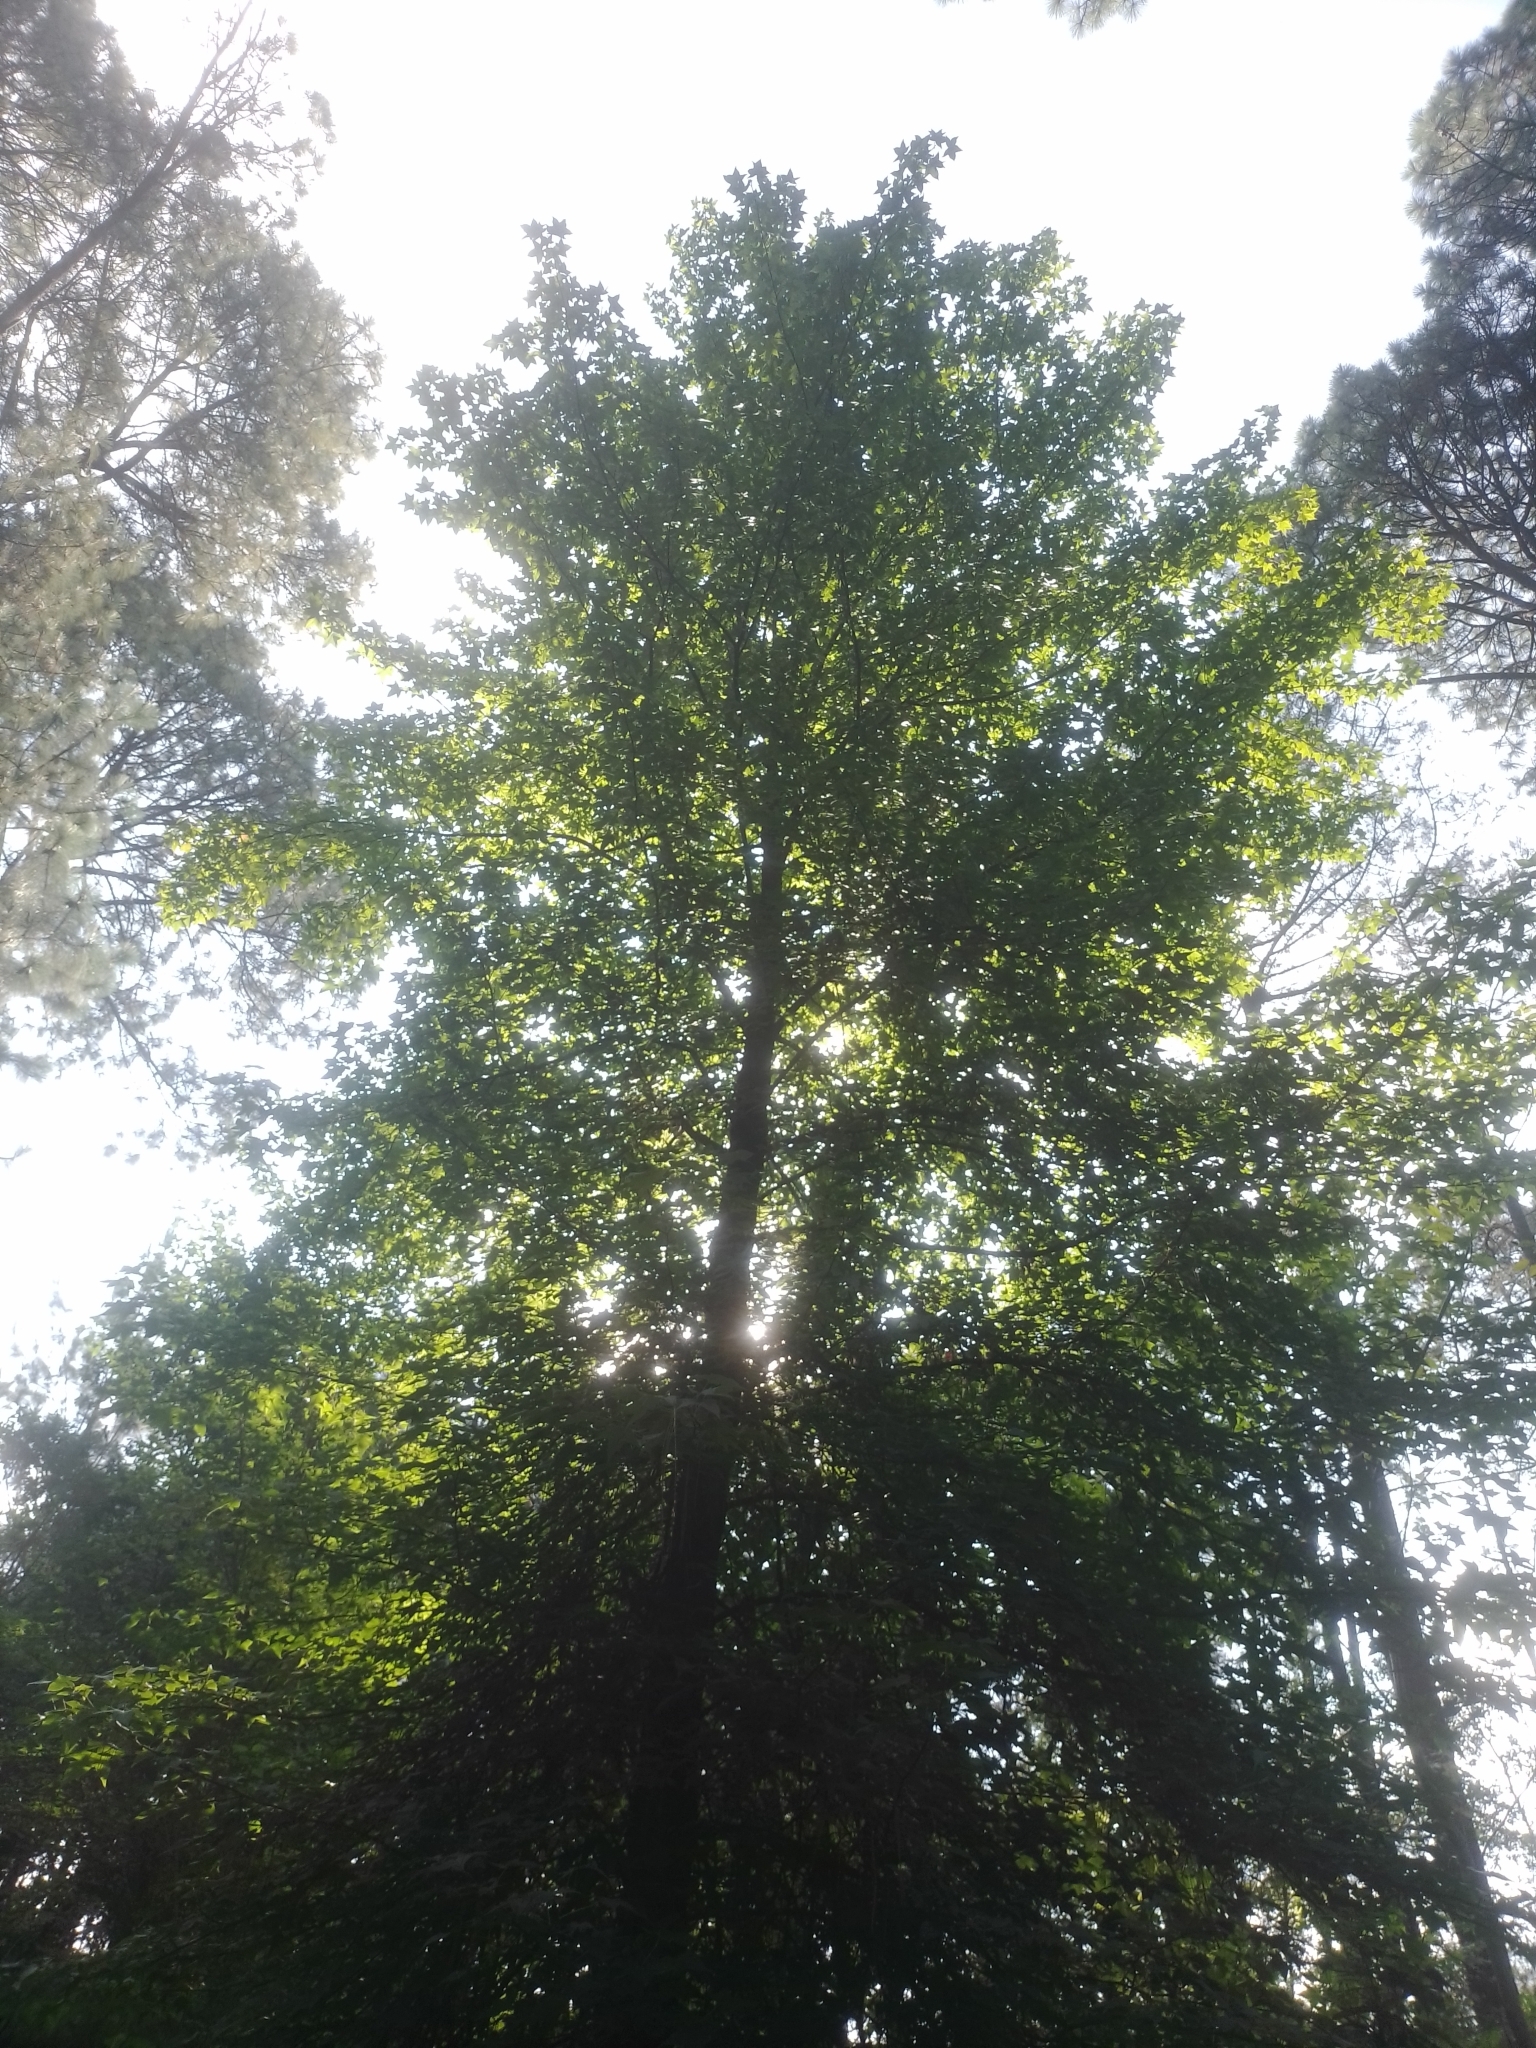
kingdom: Plantae
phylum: Tracheophyta
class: Magnoliopsida
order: Saxifragales
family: Altingiaceae
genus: Liquidambar
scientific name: Liquidambar styraciflua
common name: Sweet gum
